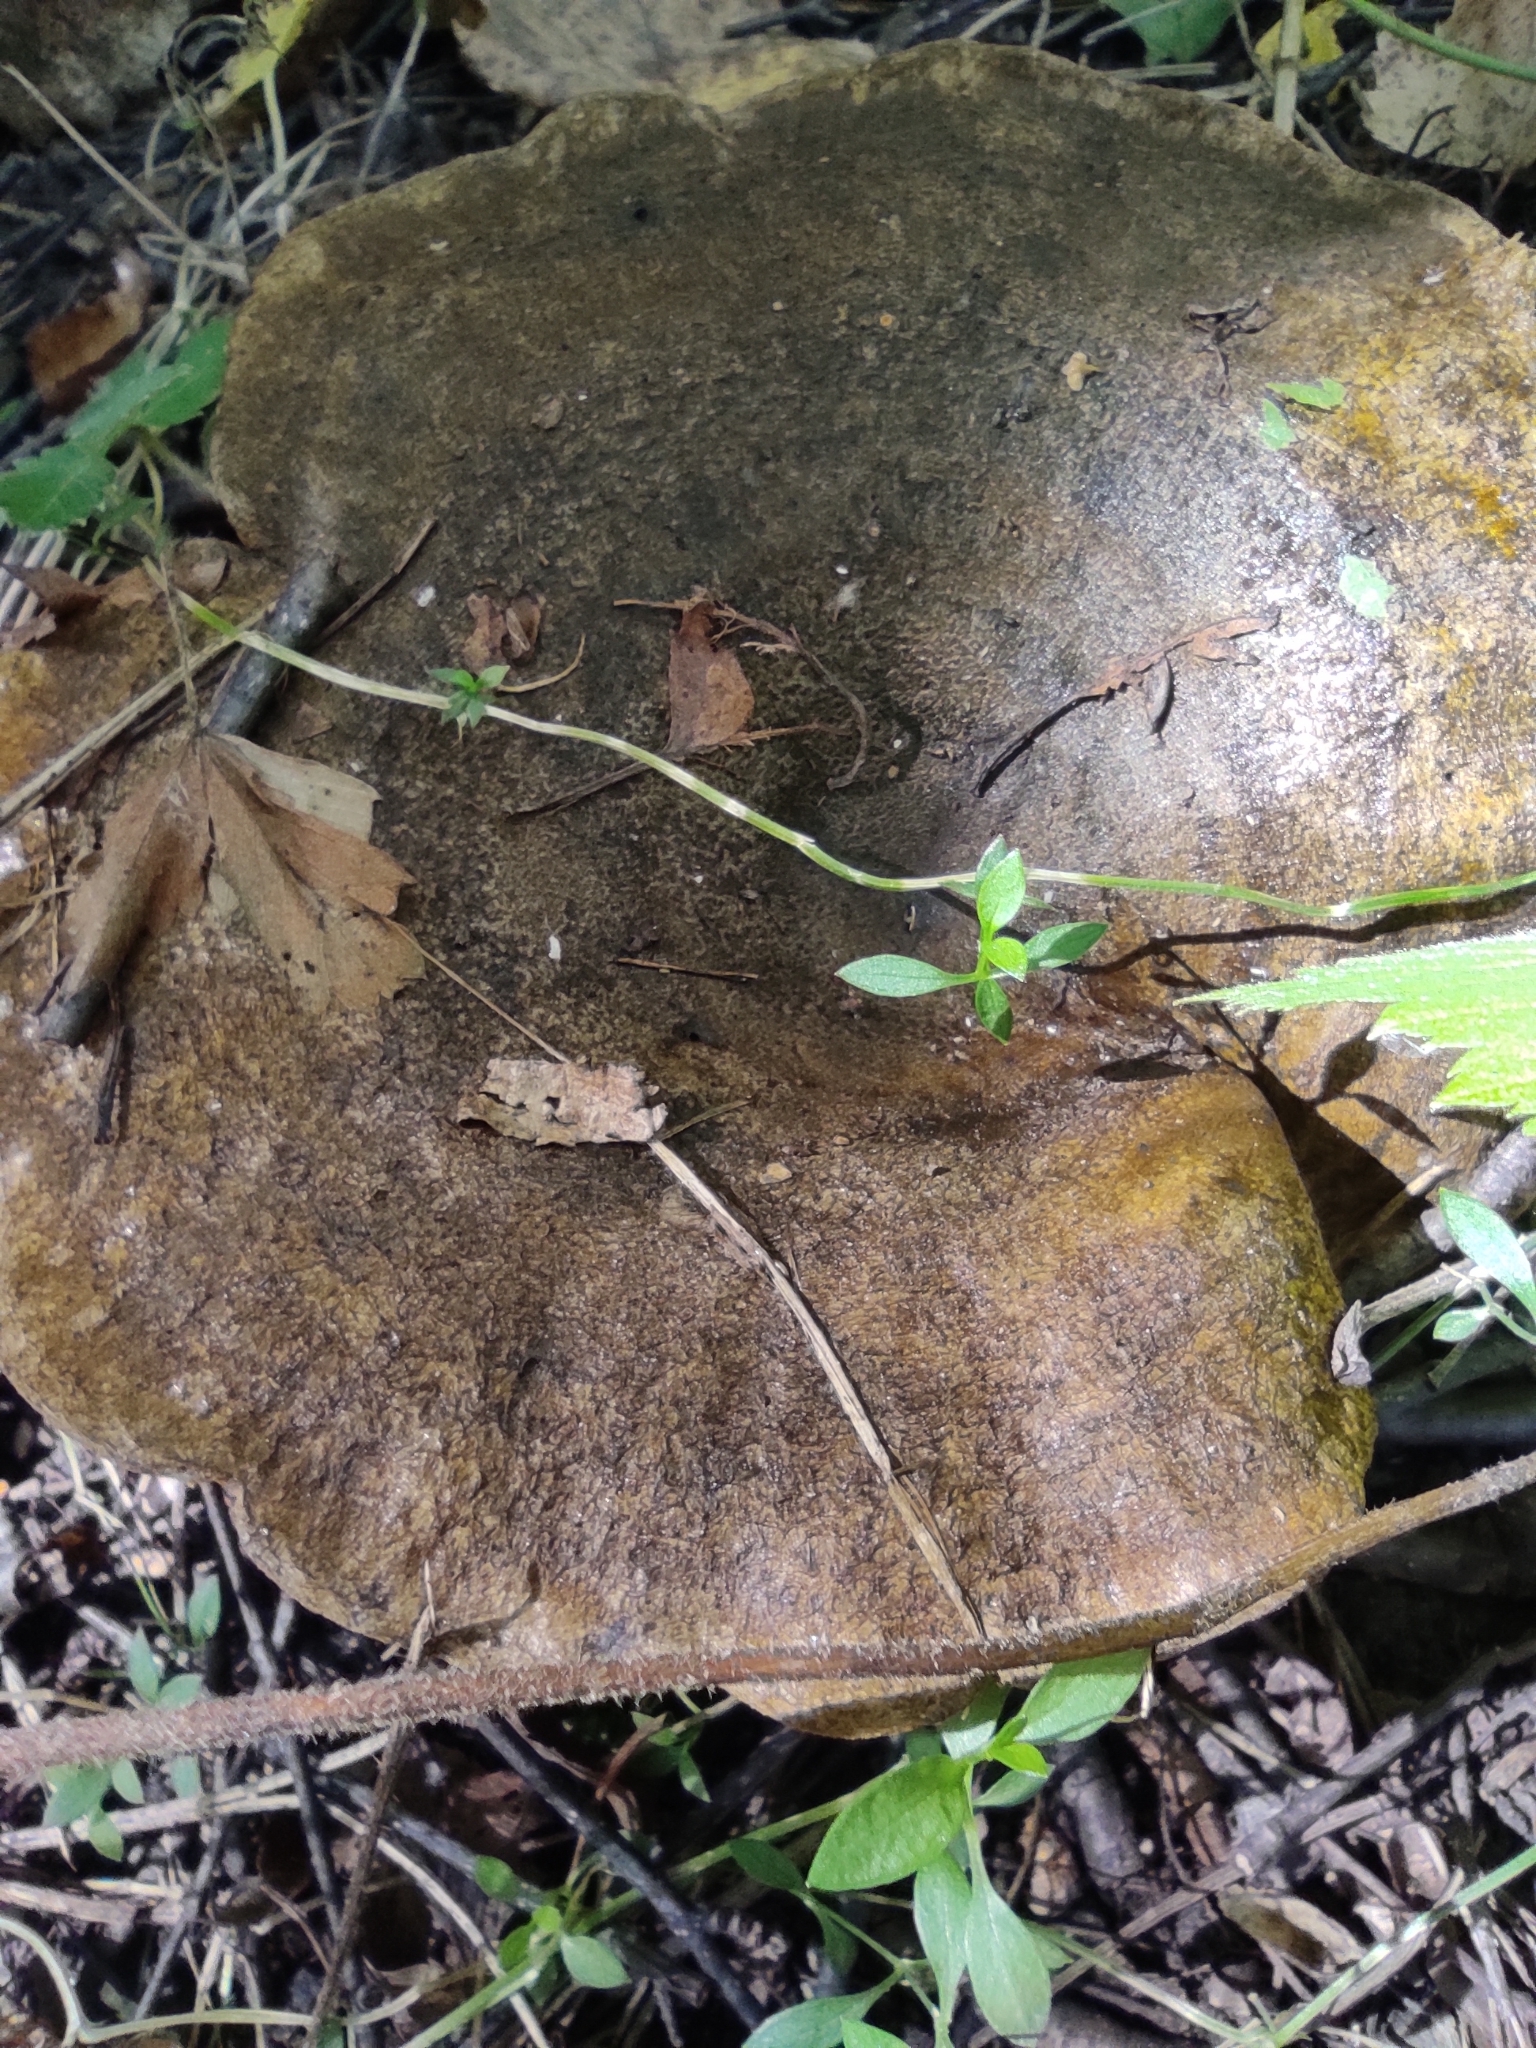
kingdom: Fungi
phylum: Basidiomycota
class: Agaricomycetes
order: Russulales
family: Russulaceae
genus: Lactarius
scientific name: Lactarius turpis
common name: Ugly milk-cap
